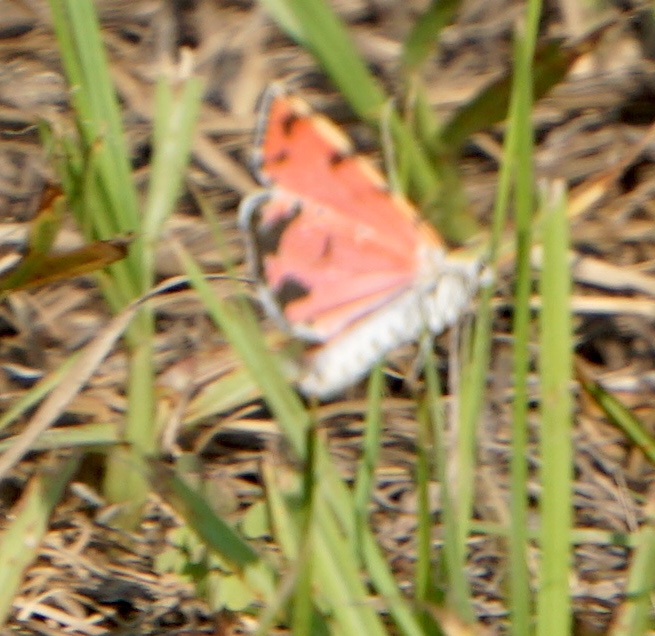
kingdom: Animalia
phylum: Arthropoda
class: Insecta
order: Lepidoptera
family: Erebidae
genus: Utetheisa
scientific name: Utetheisa ornatrix
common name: Beautiful utetheisa
